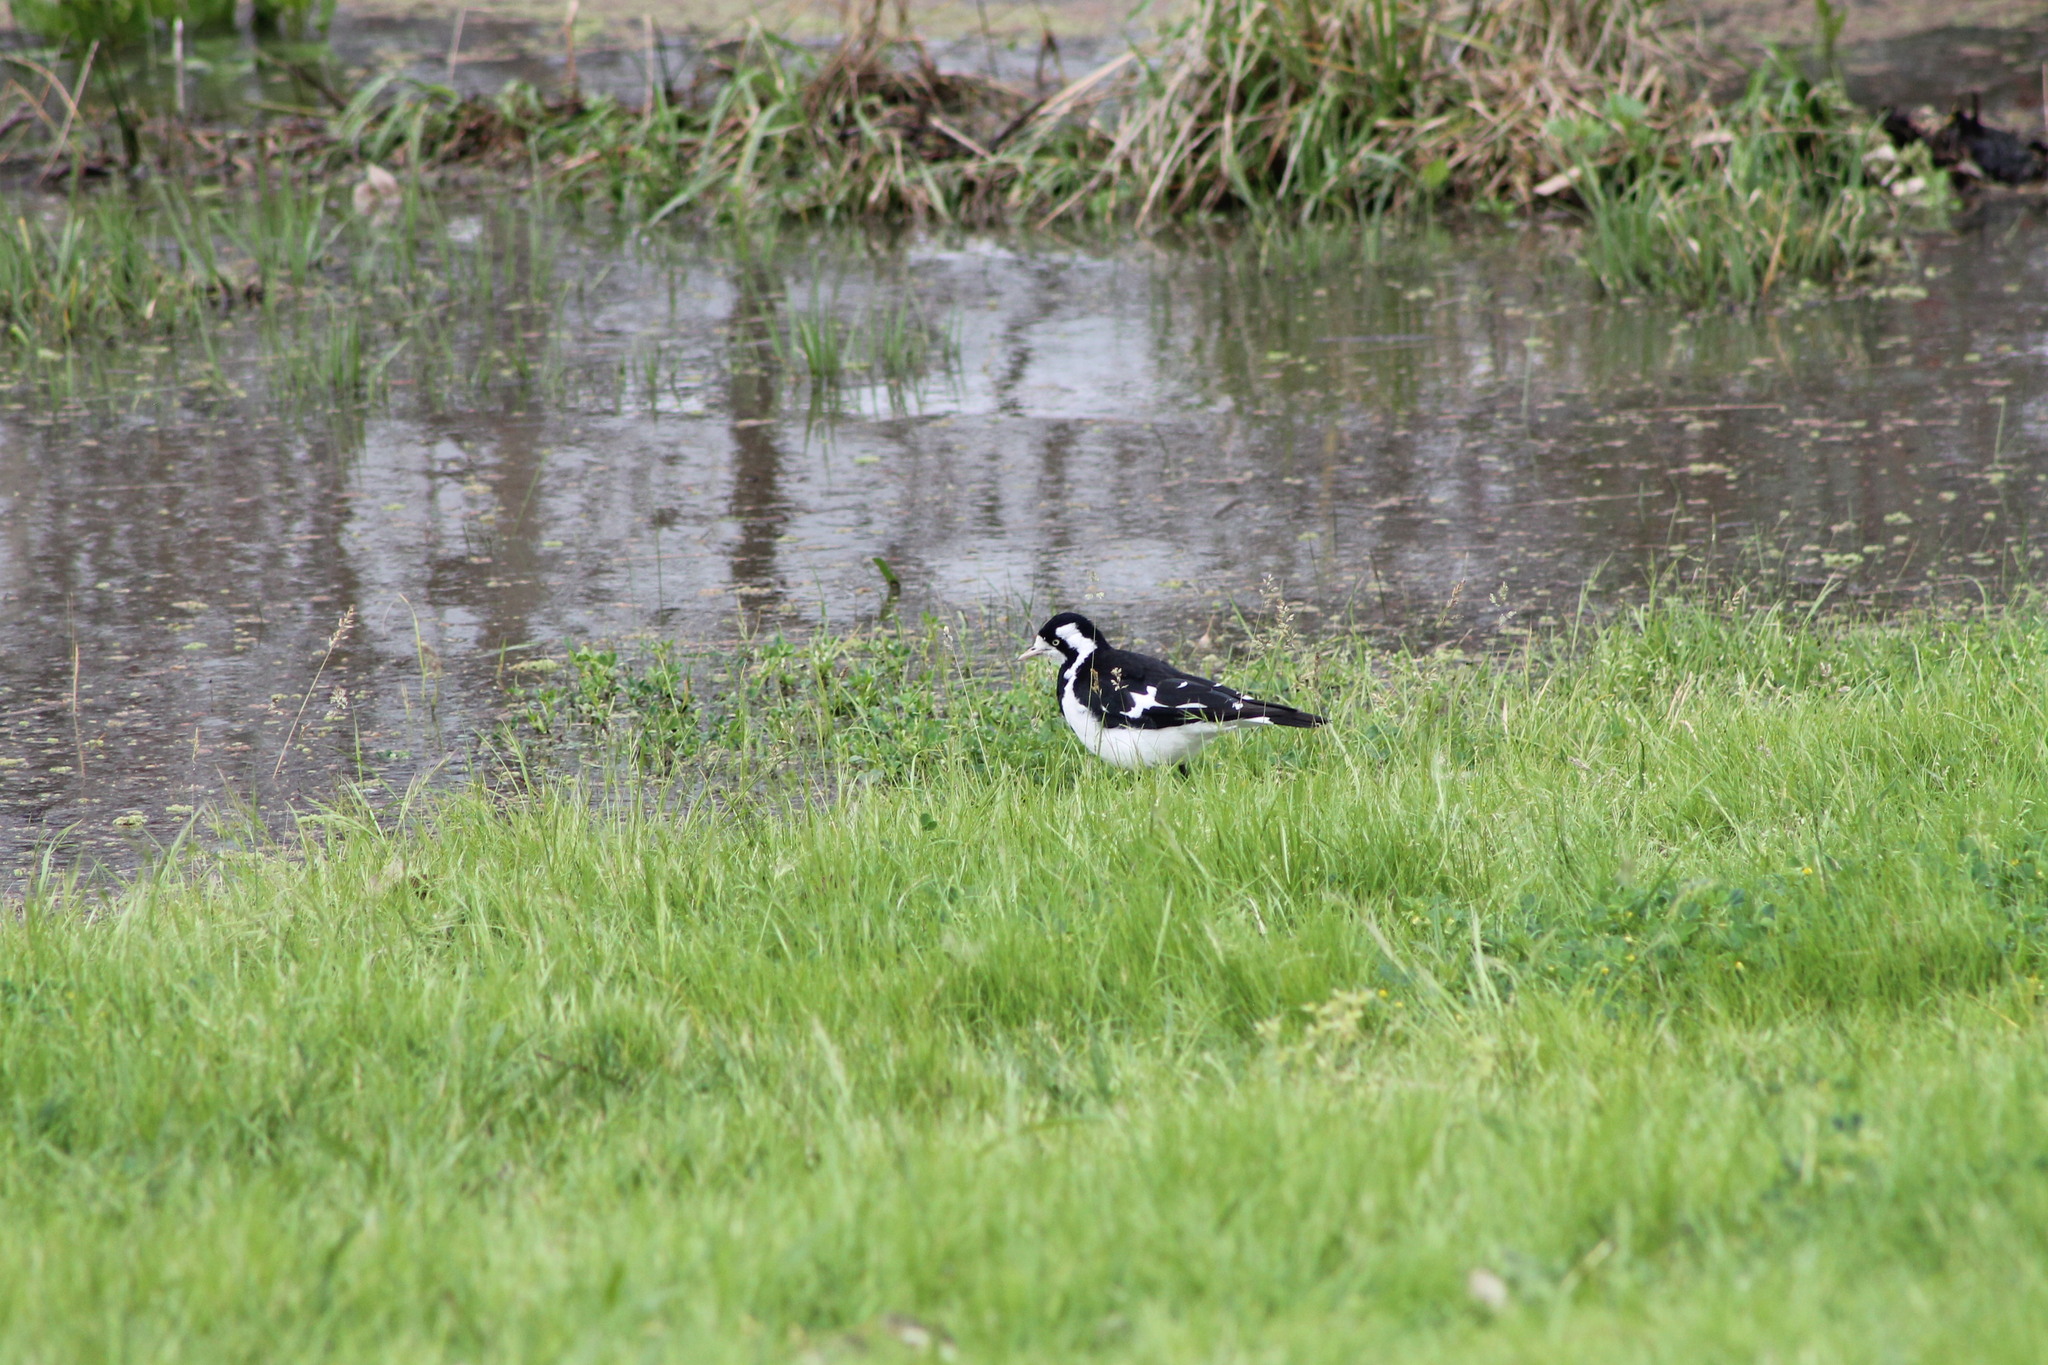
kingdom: Animalia
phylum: Chordata
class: Aves
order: Passeriformes
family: Monarchidae
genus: Grallina
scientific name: Grallina cyanoleuca
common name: Magpie-lark
